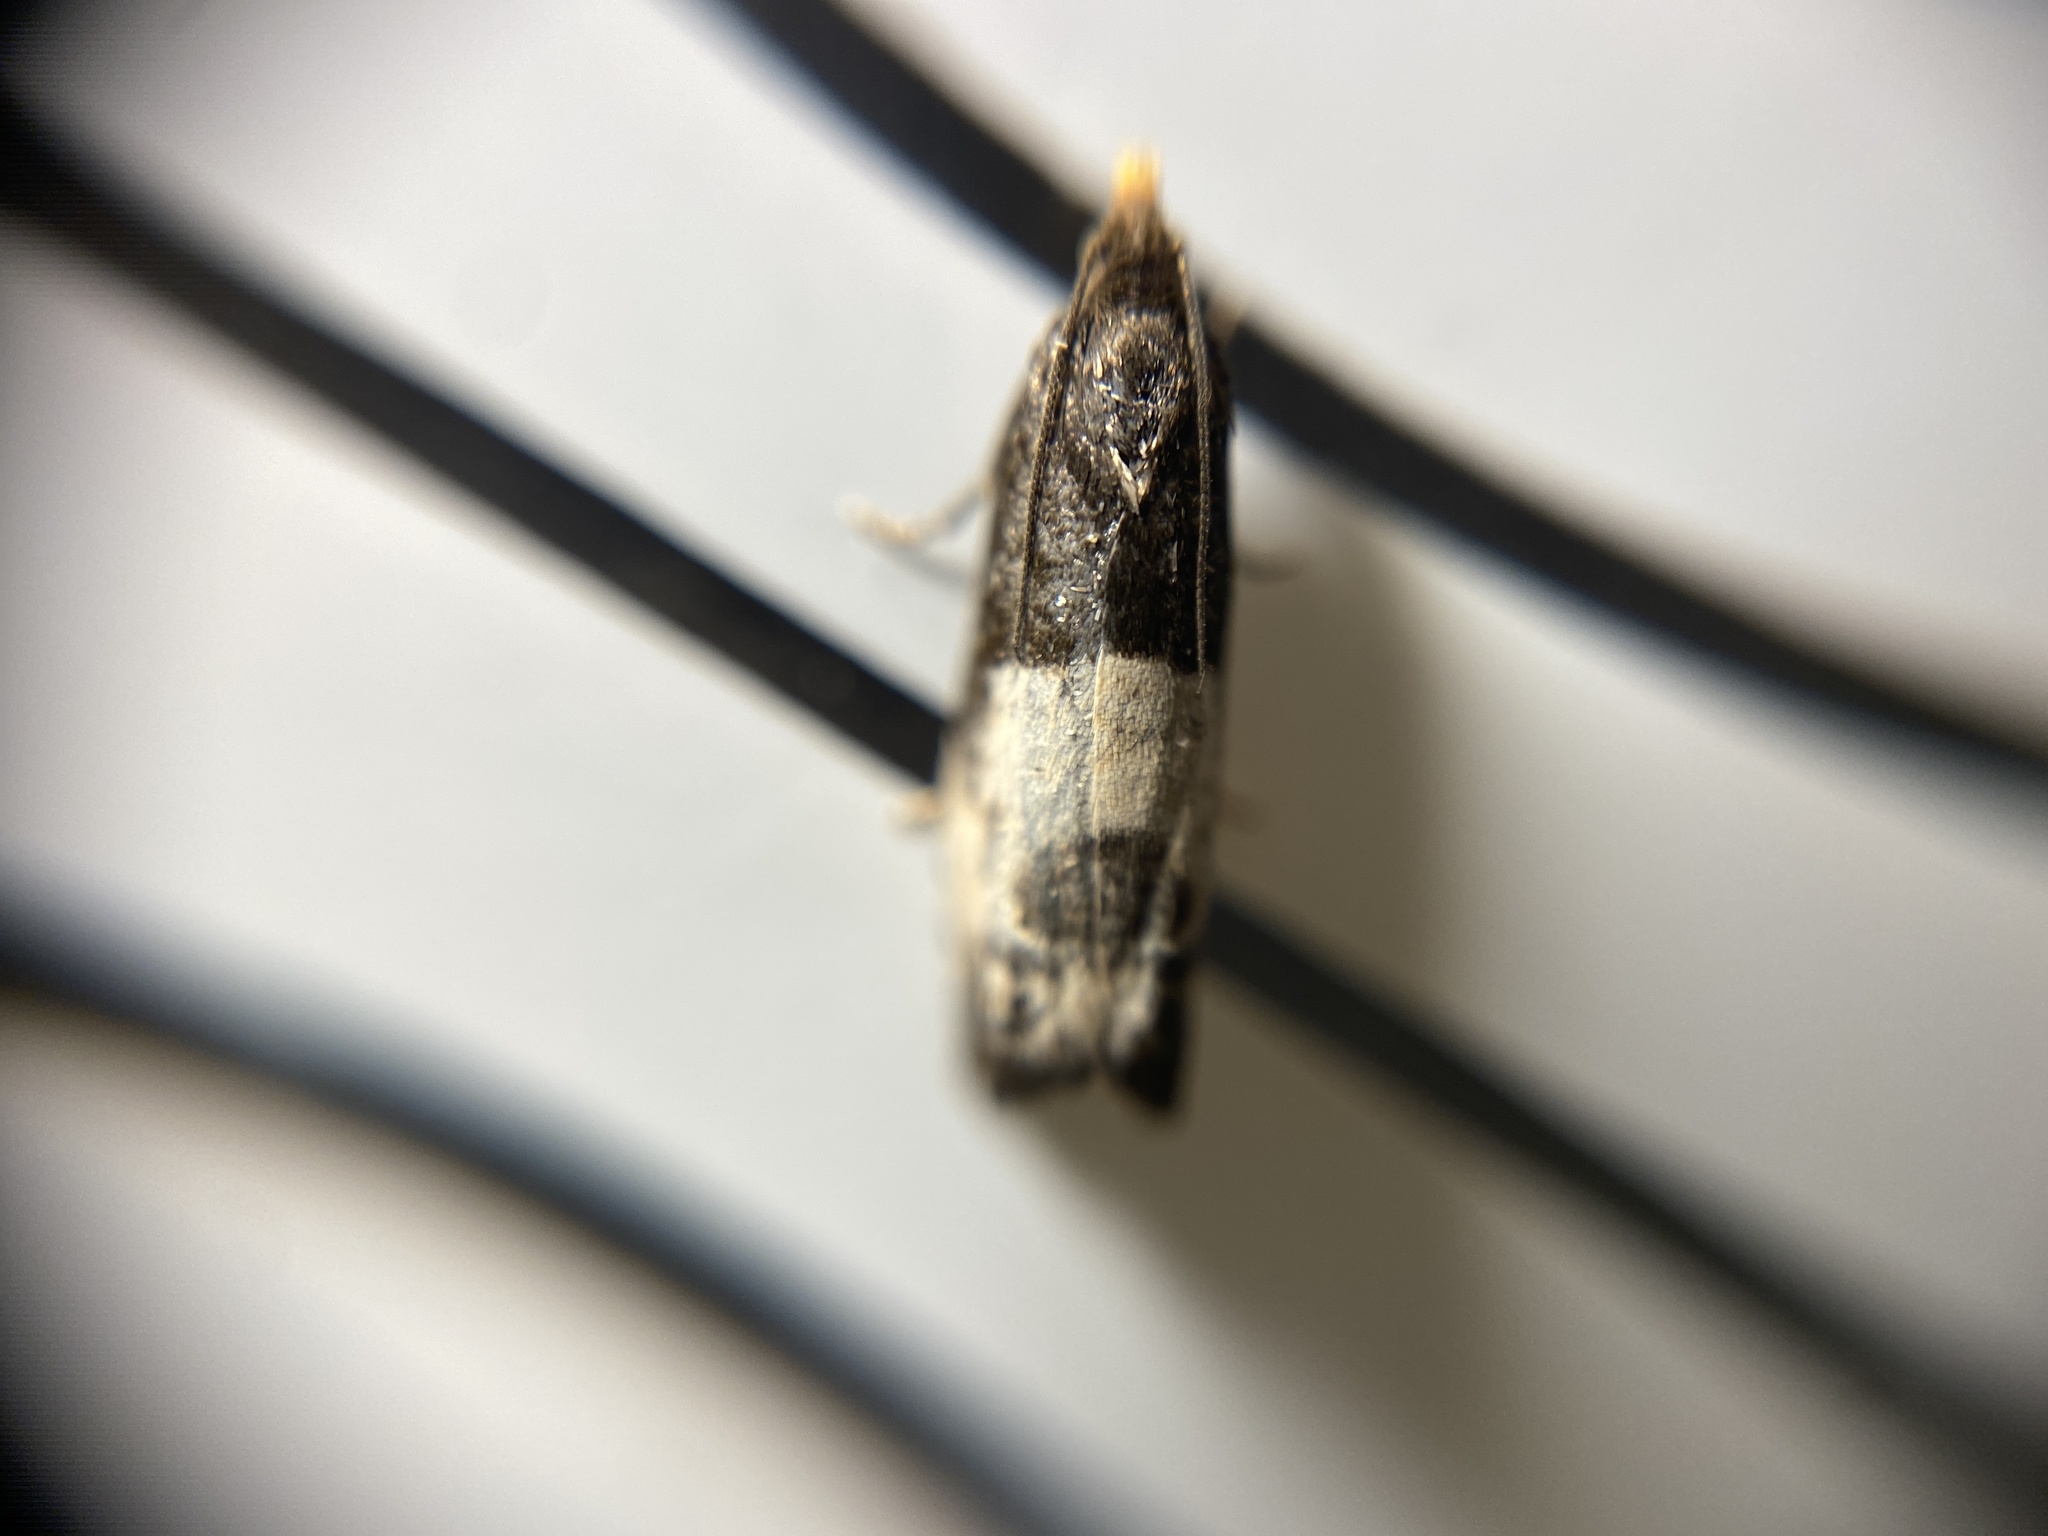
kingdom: Animalia
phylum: Arthropoda
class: Insecta
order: Lepidoptera
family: Tortricidae
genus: Notocelia
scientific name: Notocelia cynosbatella
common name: Yellow-faced bell moth
